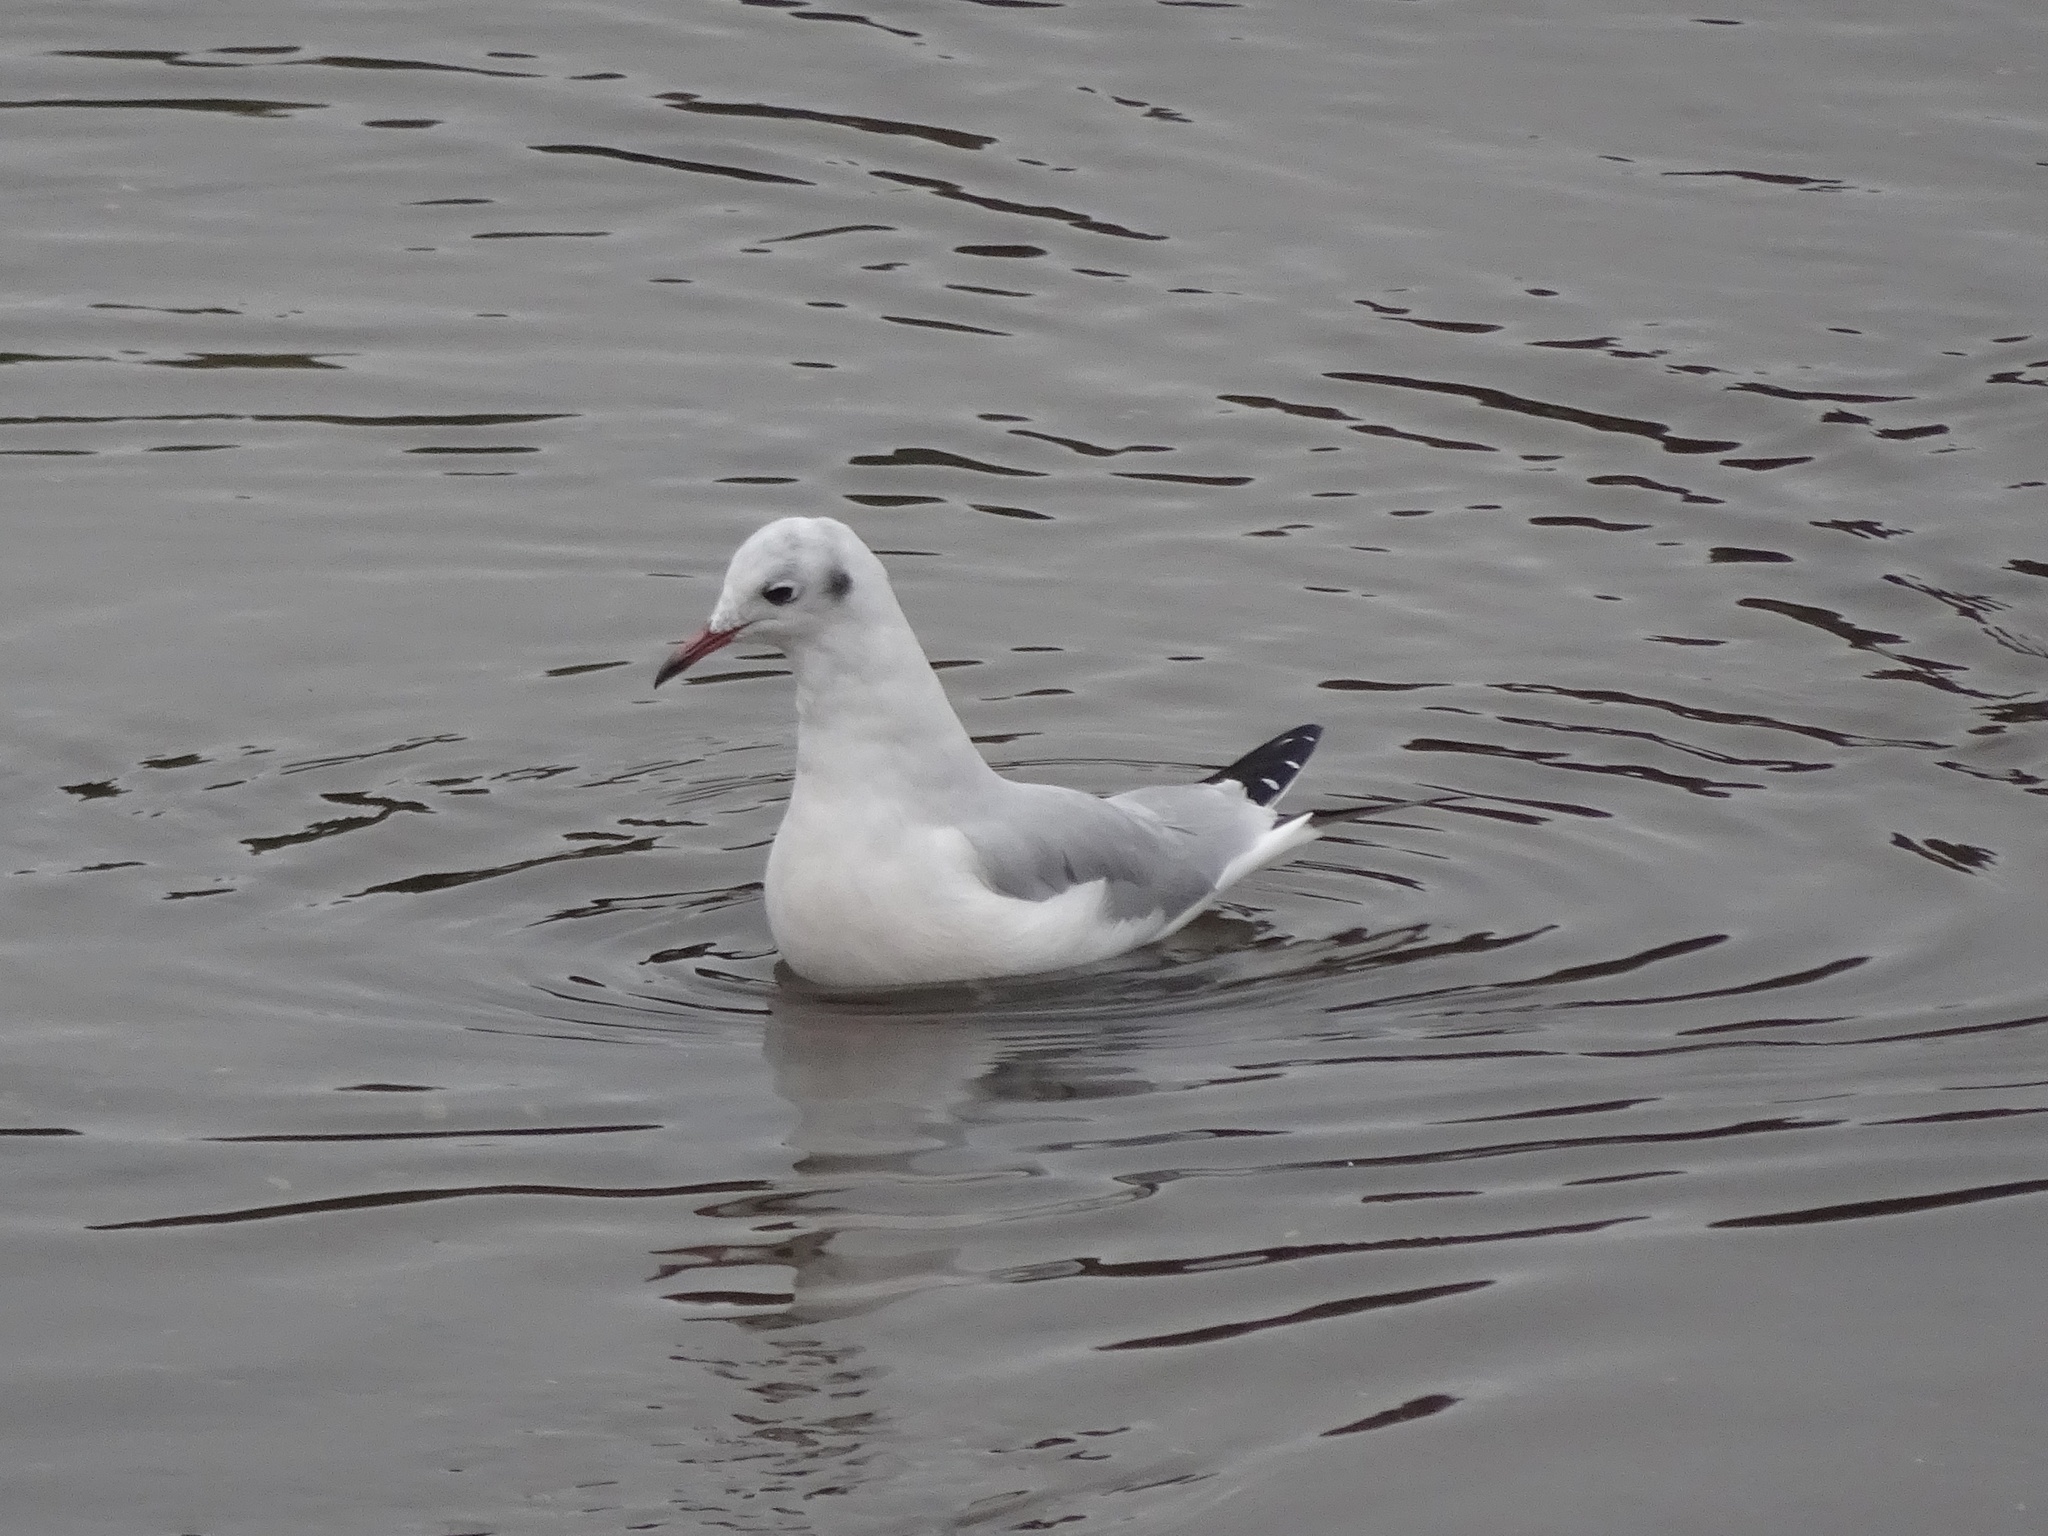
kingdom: Animalia
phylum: Chordata
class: Aves
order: Charadriiformes
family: Laridae
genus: Chroicocephalus
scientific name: Chroicocephalus ridibundus
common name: Black-headed gull
